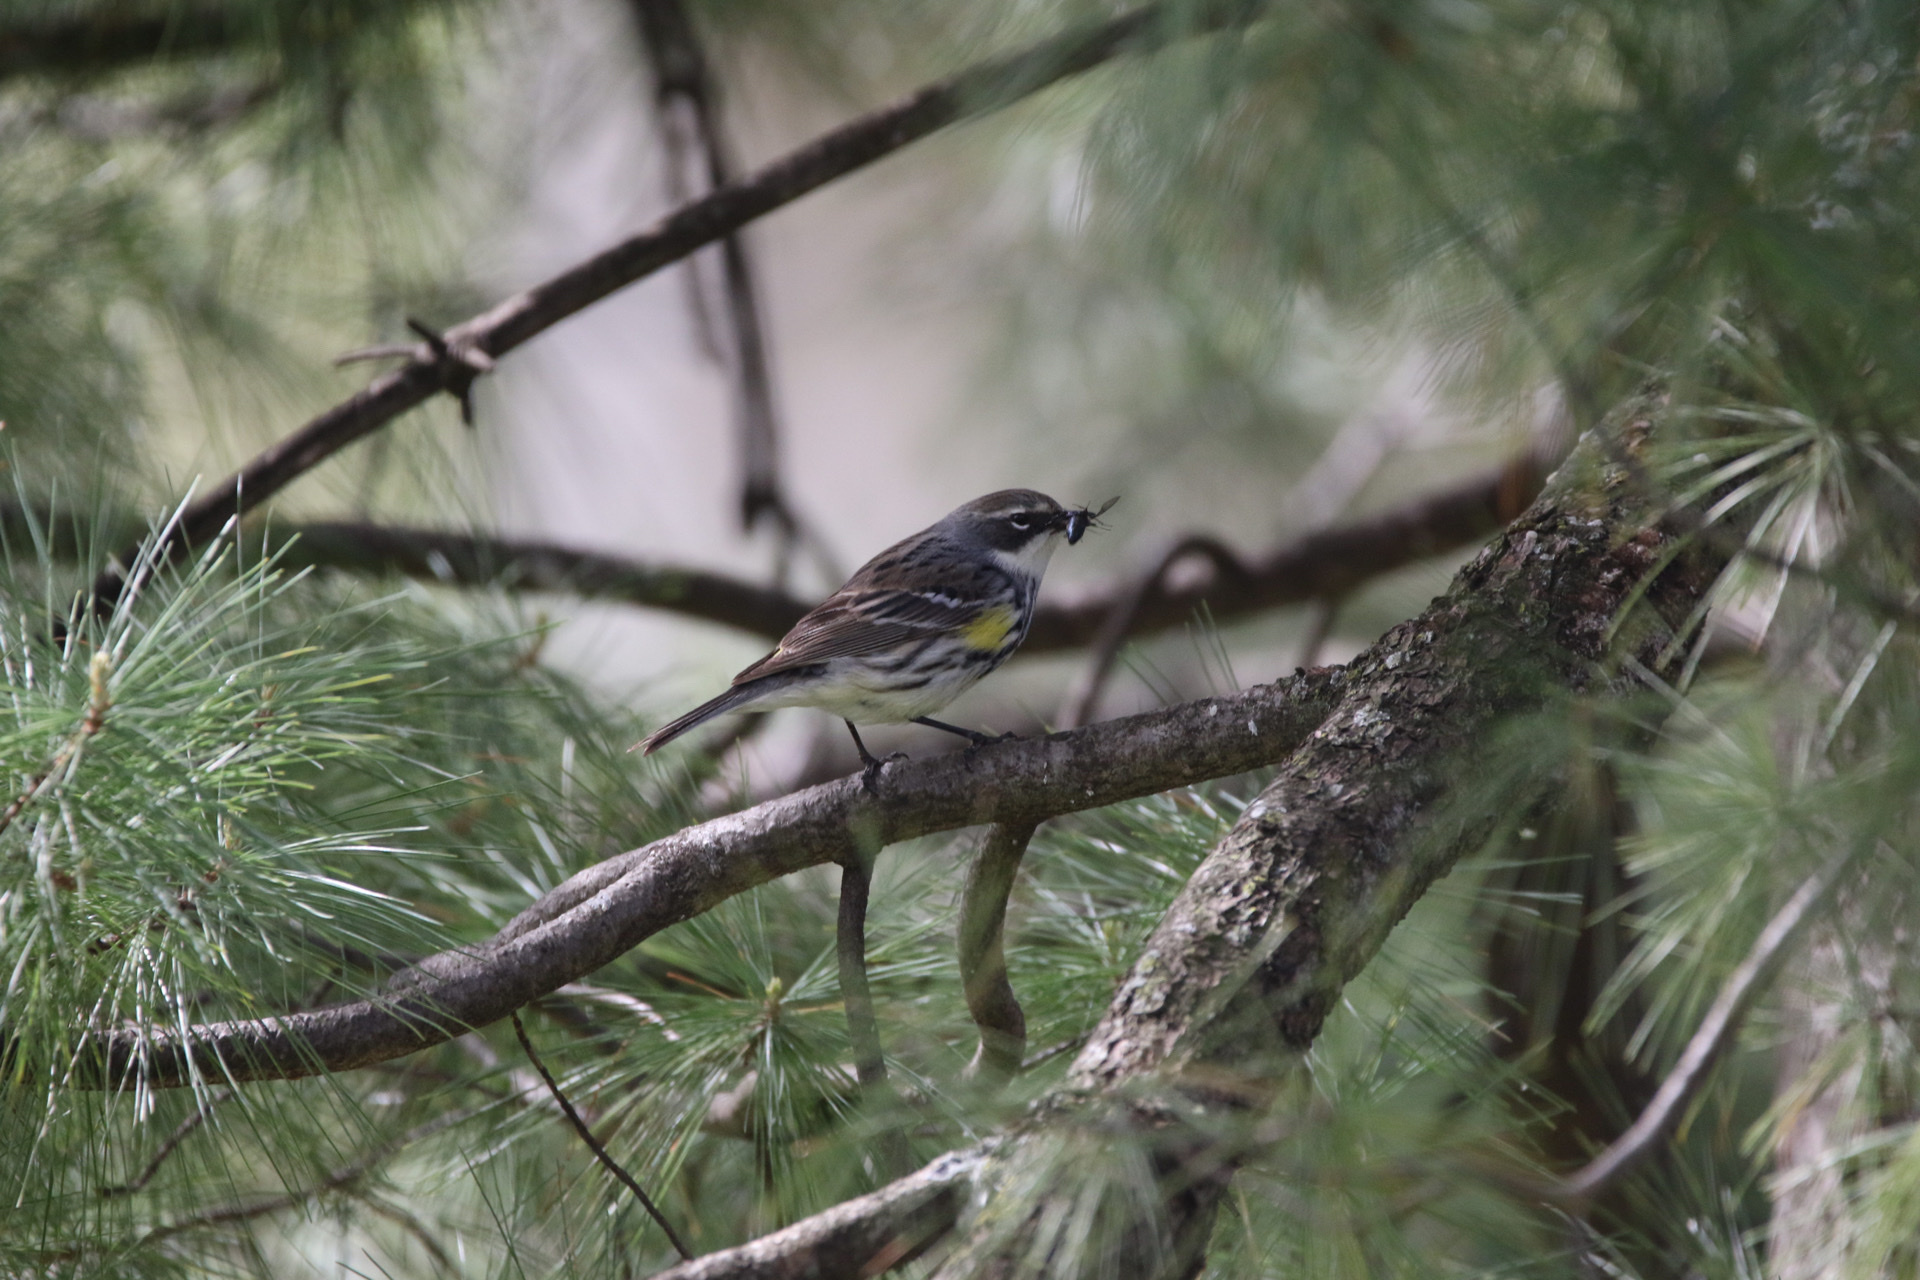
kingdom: Animalia
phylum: Chordata
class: Aves
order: Passeriformes
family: Parulidae
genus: Setophaga
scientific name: Setophaga coronata
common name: Myrtle warbler
